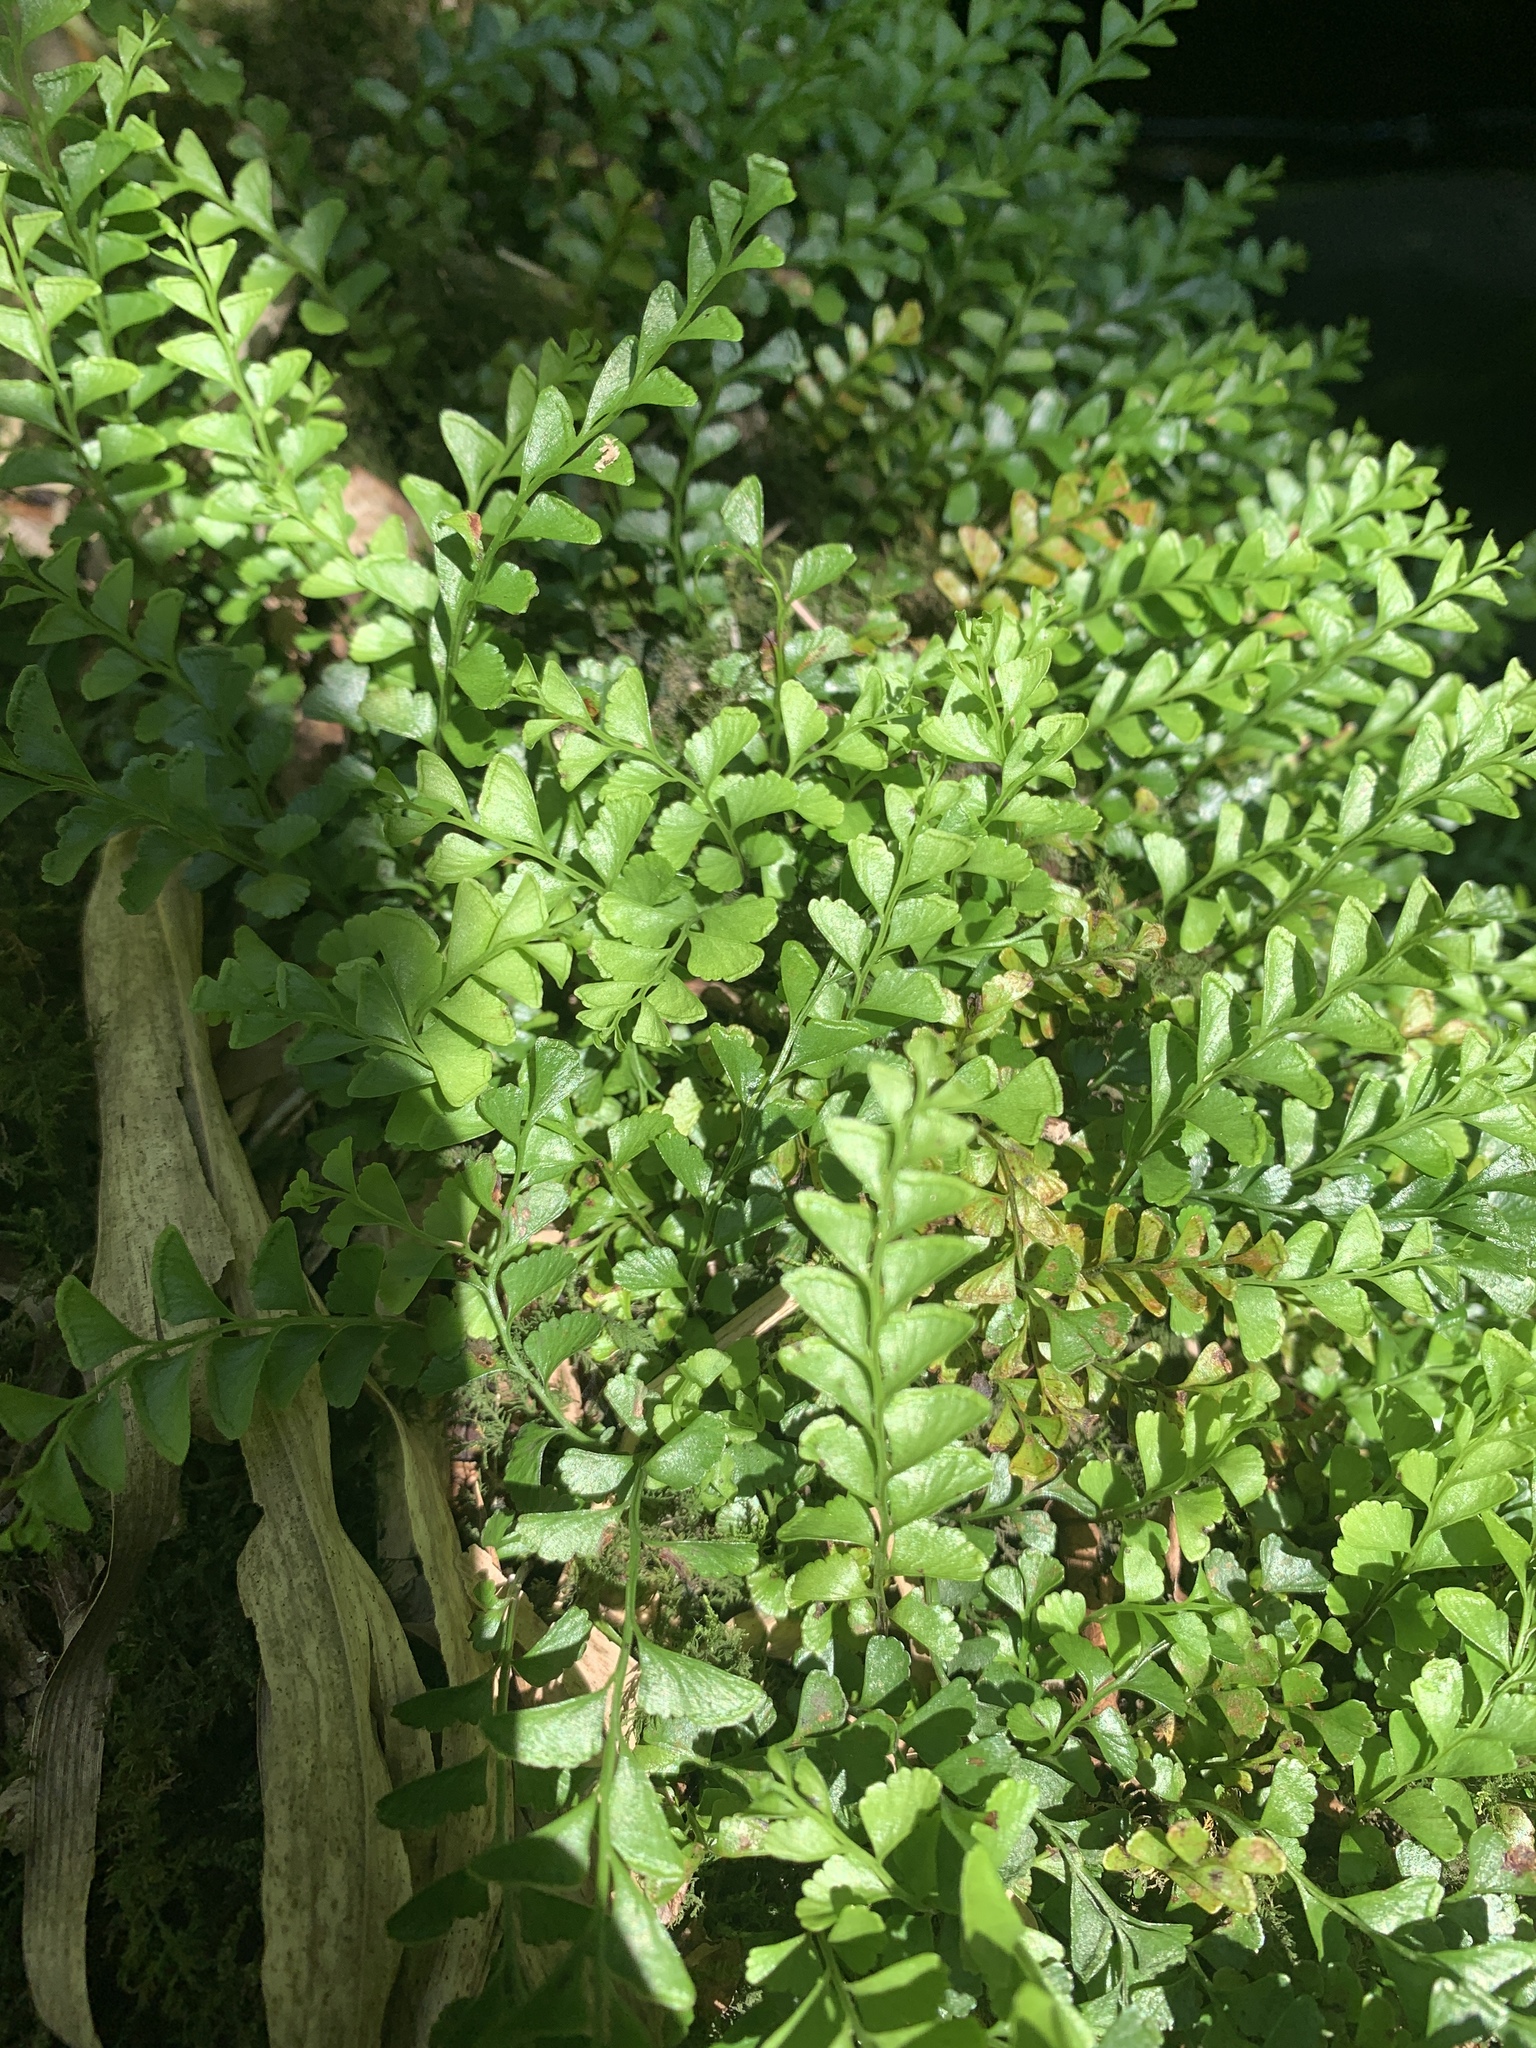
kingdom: Plantae
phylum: Tracheophyta
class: Polypodiopsida
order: Polypodiales
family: Lindsaeaceae
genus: Osmolindsaea
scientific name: Osmolindsaea japonica
